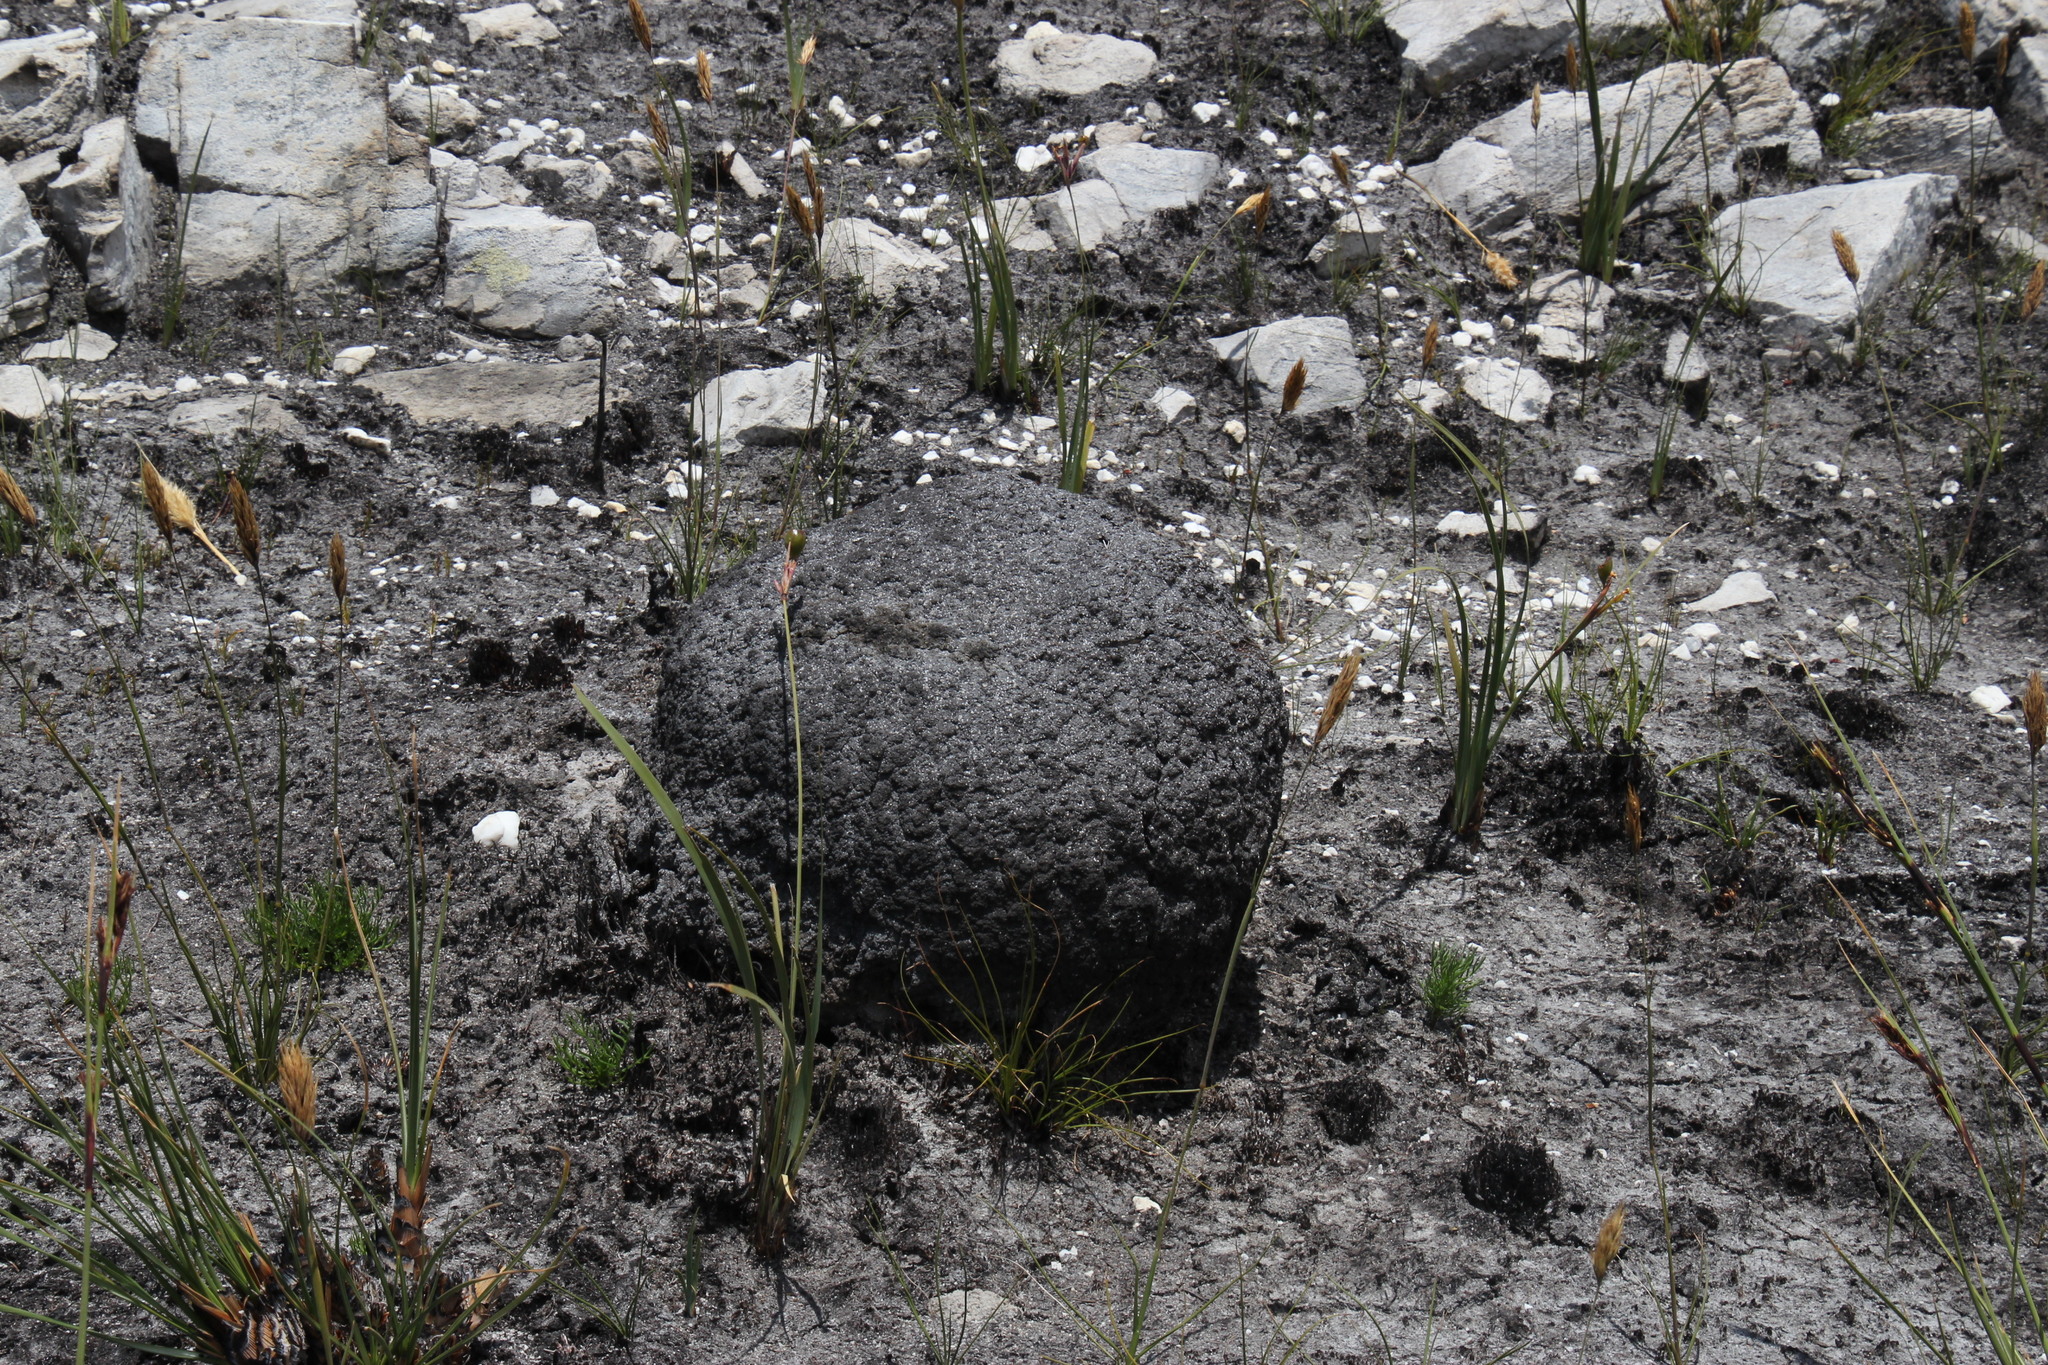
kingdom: Animalia
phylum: Arthropoda
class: Insecta
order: Blattodea
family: Termitidae
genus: Amitermes
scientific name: Amitermes hastatus
